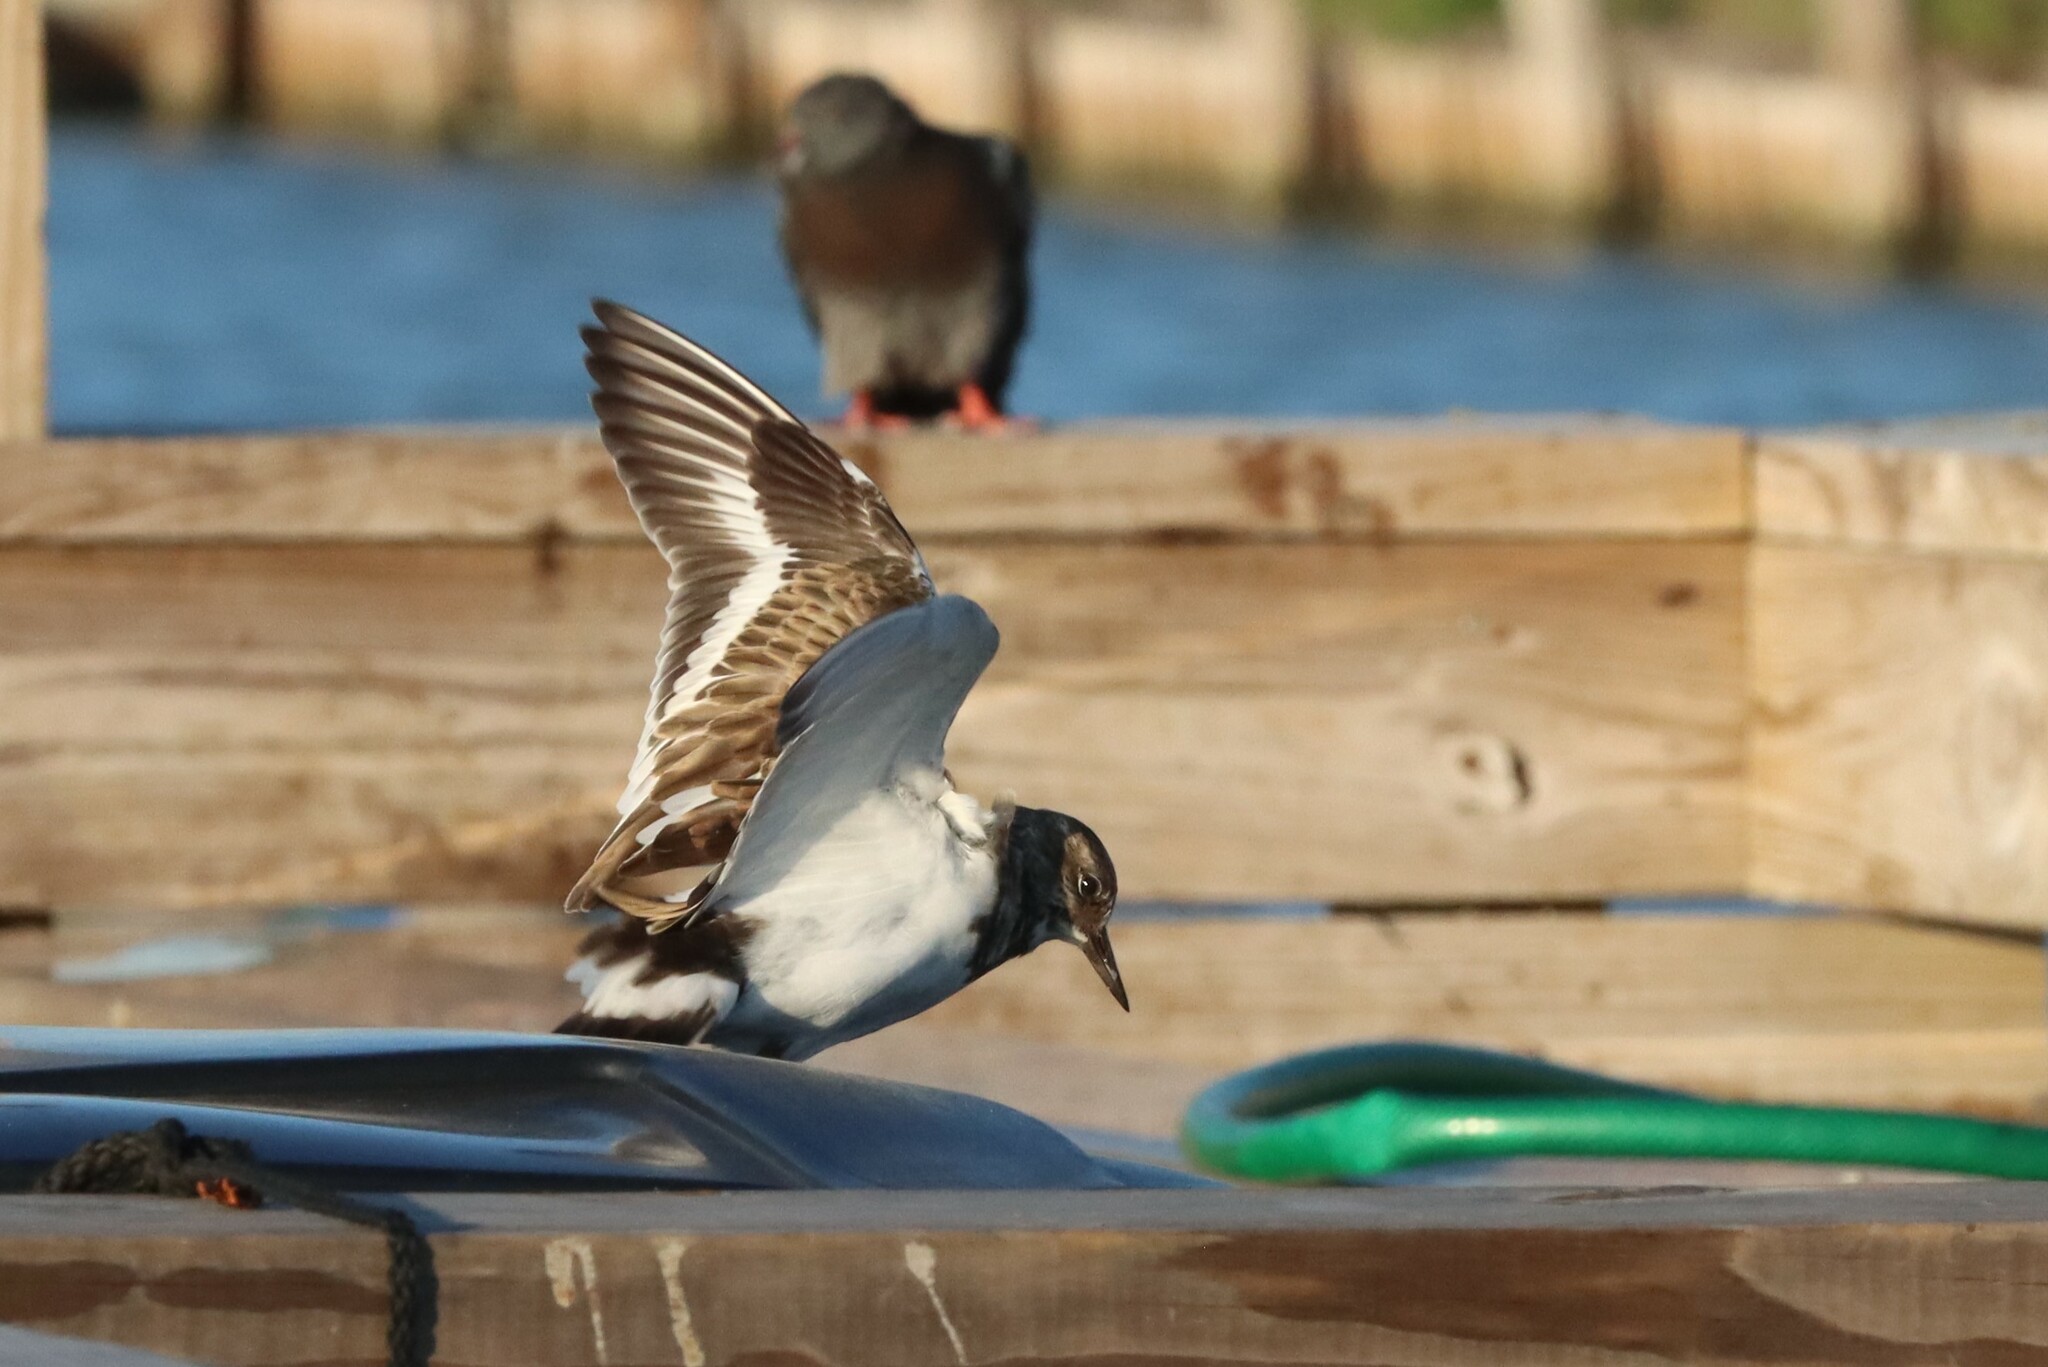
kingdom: Animalia
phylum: Chordata
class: Aves
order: Charadriiformes
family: Scolopacidae
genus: Arenaria
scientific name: Arenaria interpres
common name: Ruddy turnstone
